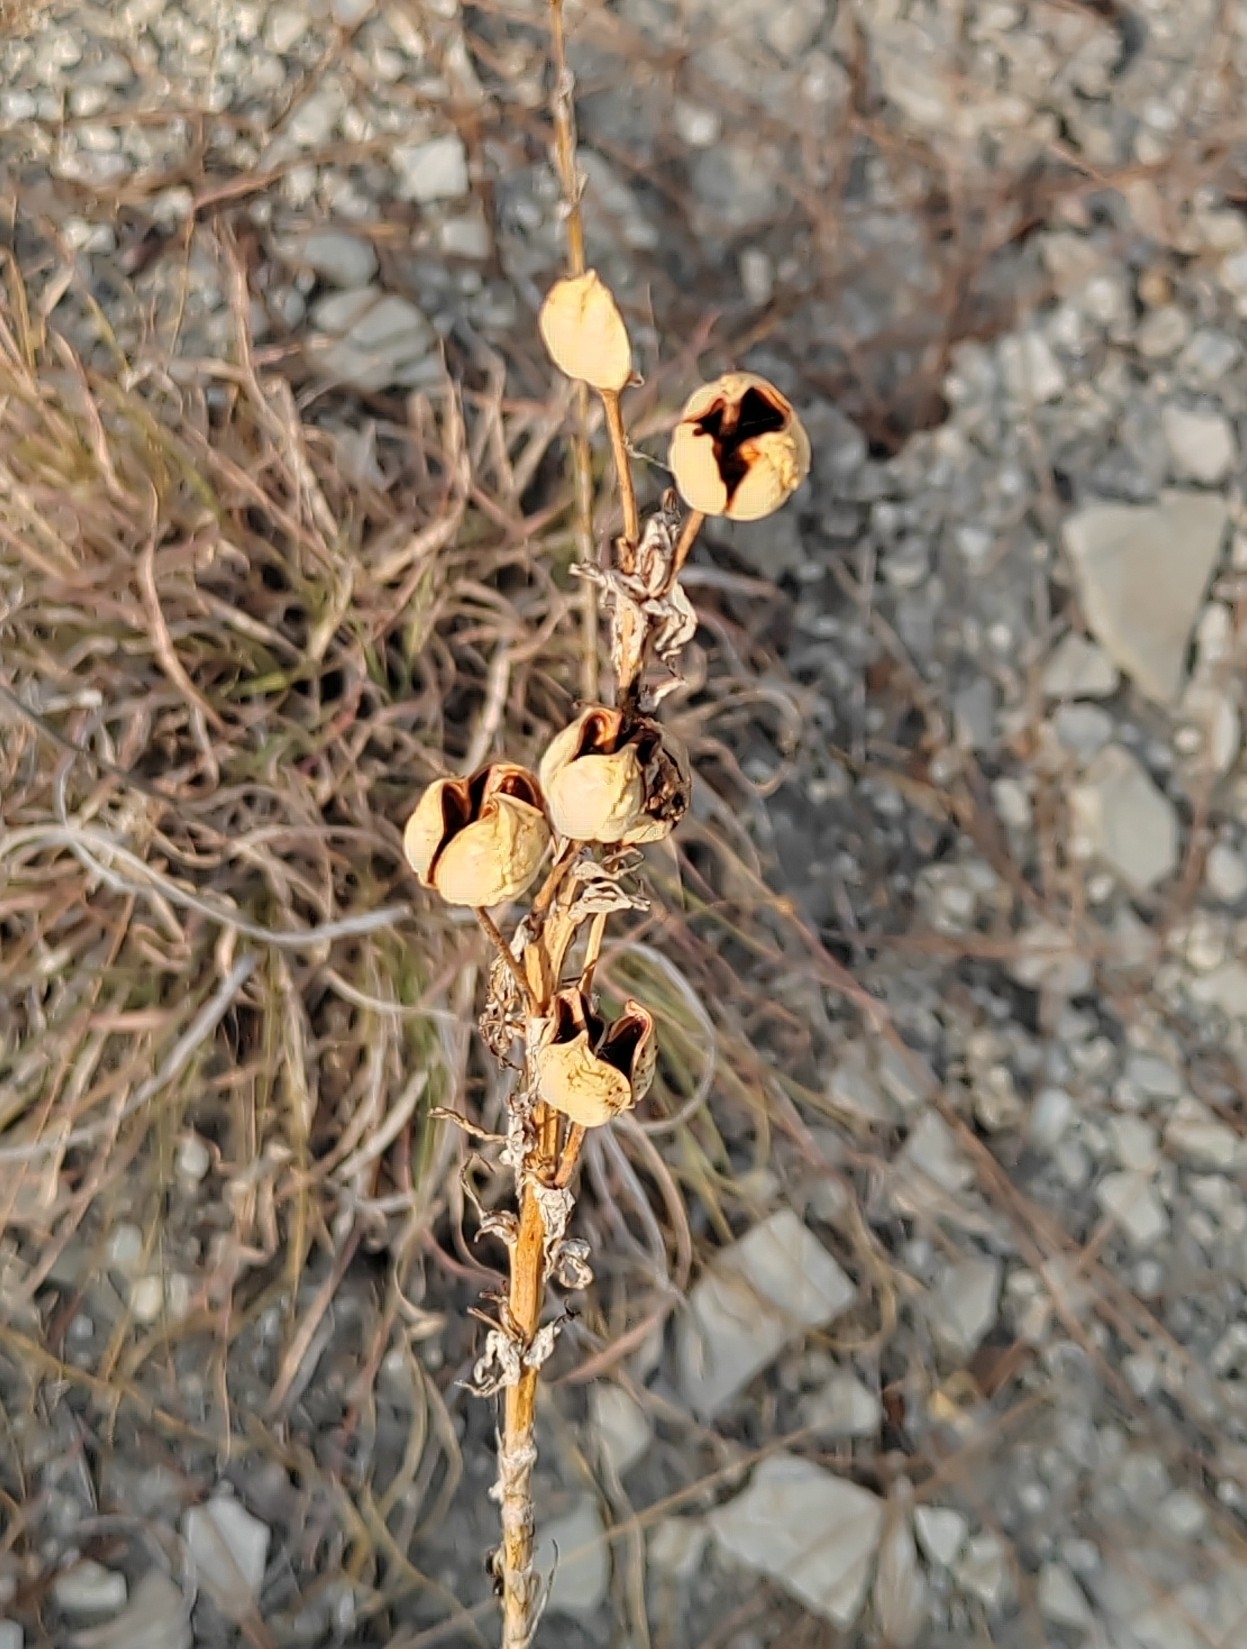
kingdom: Plantae
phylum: Tracheophyta
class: Liliopsida
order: Asparagales
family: Asphodelaceae
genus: Asphodeline
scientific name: Asphodeline lutea
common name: Yellow asphodel
